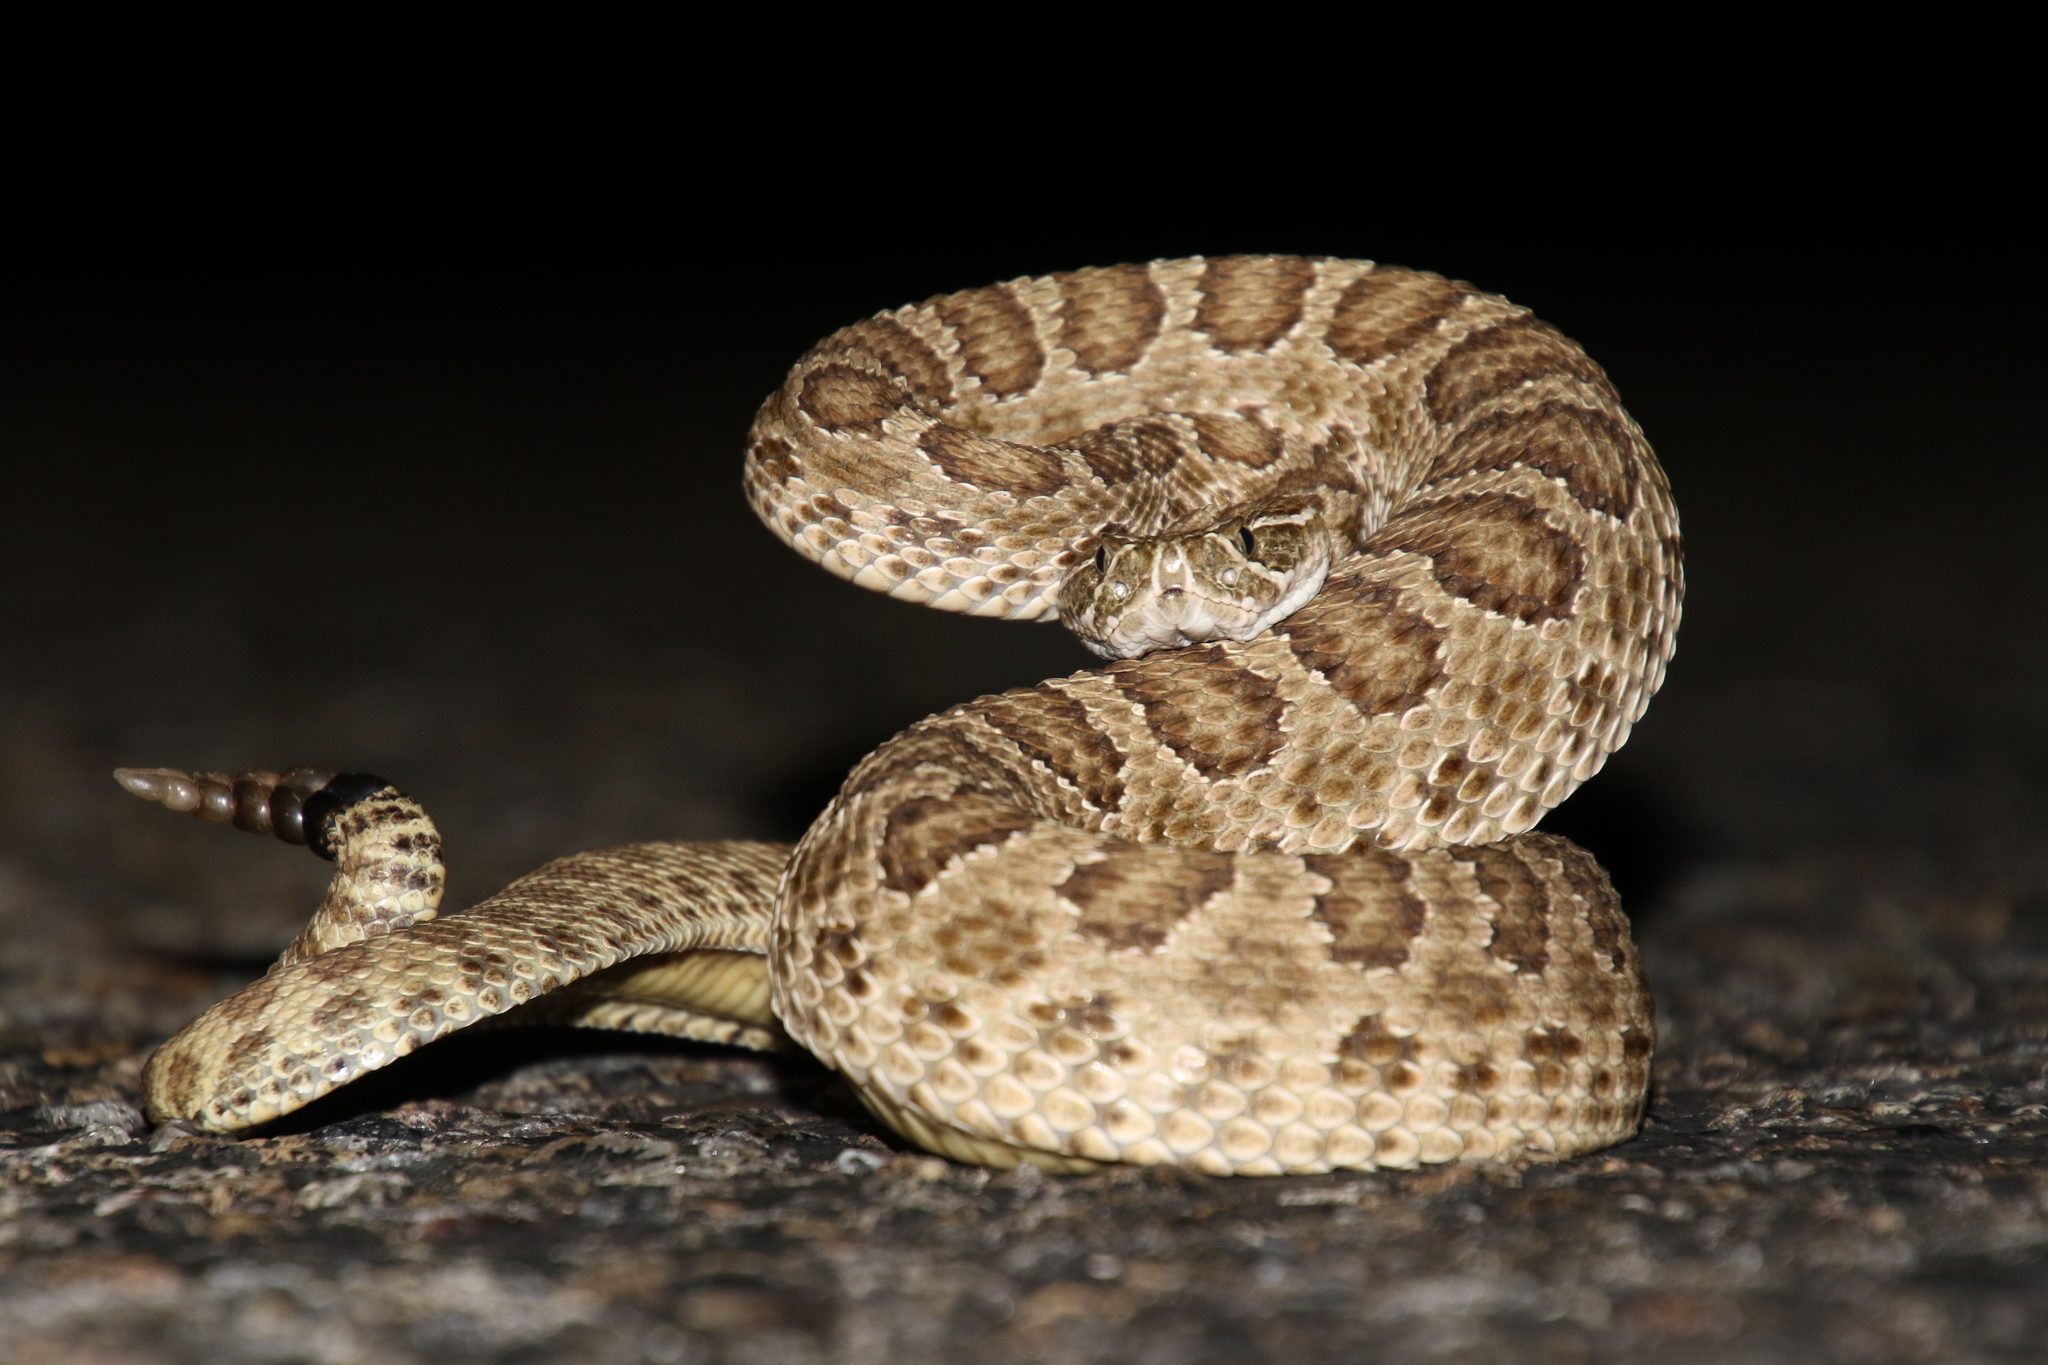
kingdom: Animalia
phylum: Chordata
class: Squamata
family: Viperidae
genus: Crotalus
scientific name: Crotalus viridis
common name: Prairie rattlesnake
